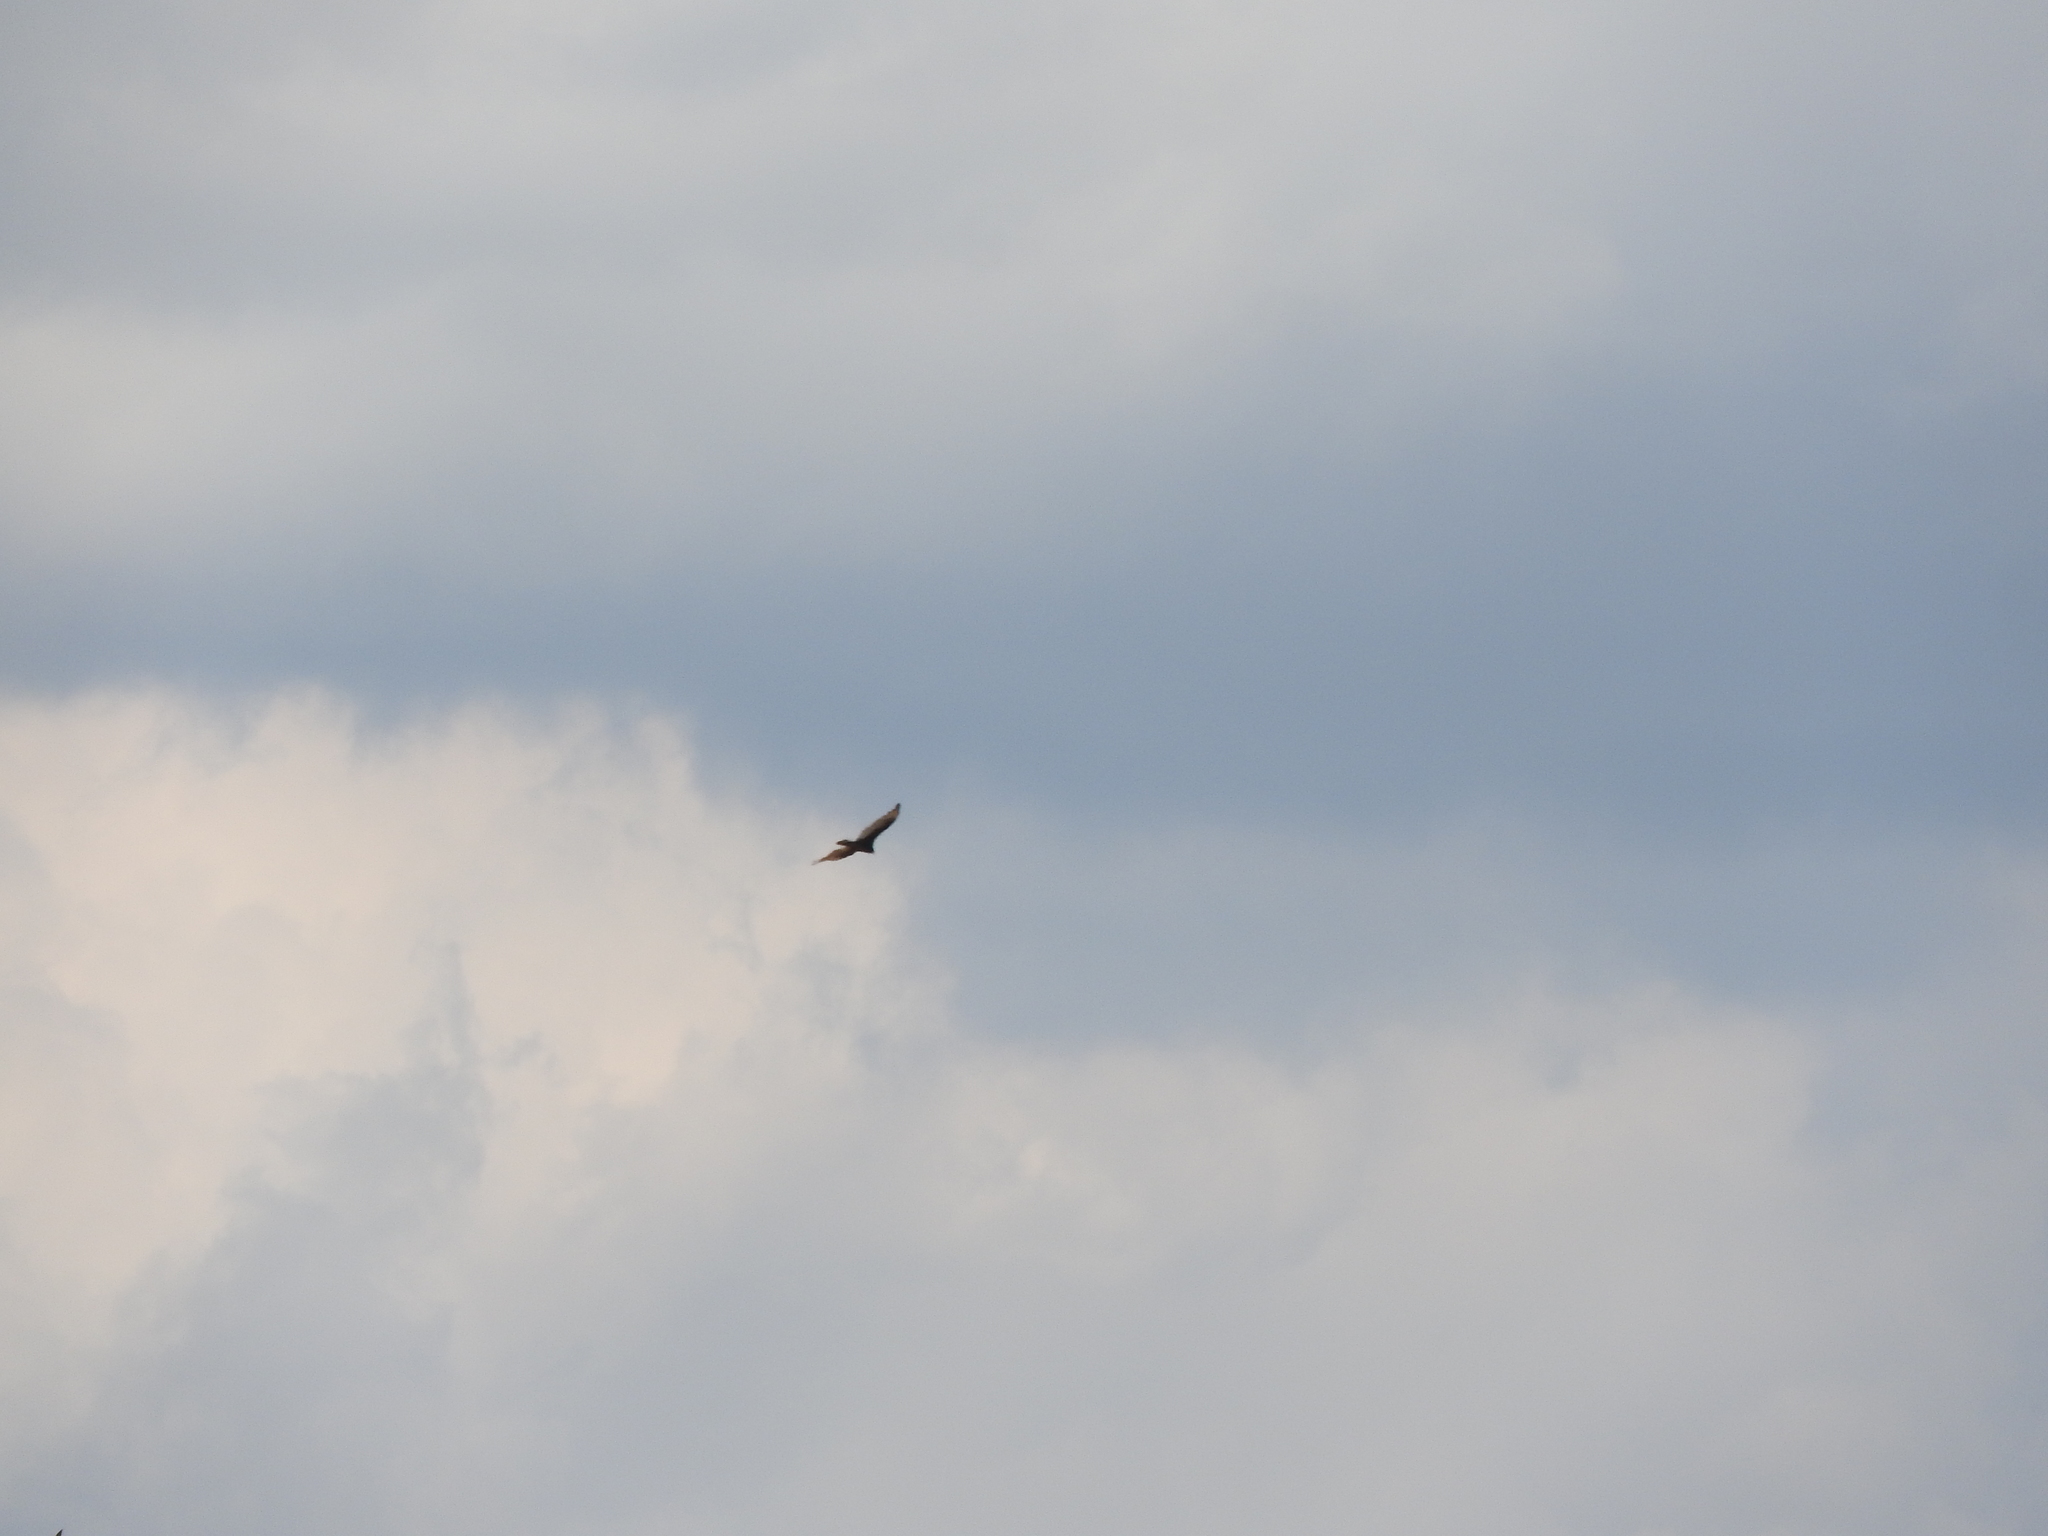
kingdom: Animalia
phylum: Chordata
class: Aves
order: Accipitriformes
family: Cathartidae
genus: Cathartes
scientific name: Cathartes aura
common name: Turkey vulture
